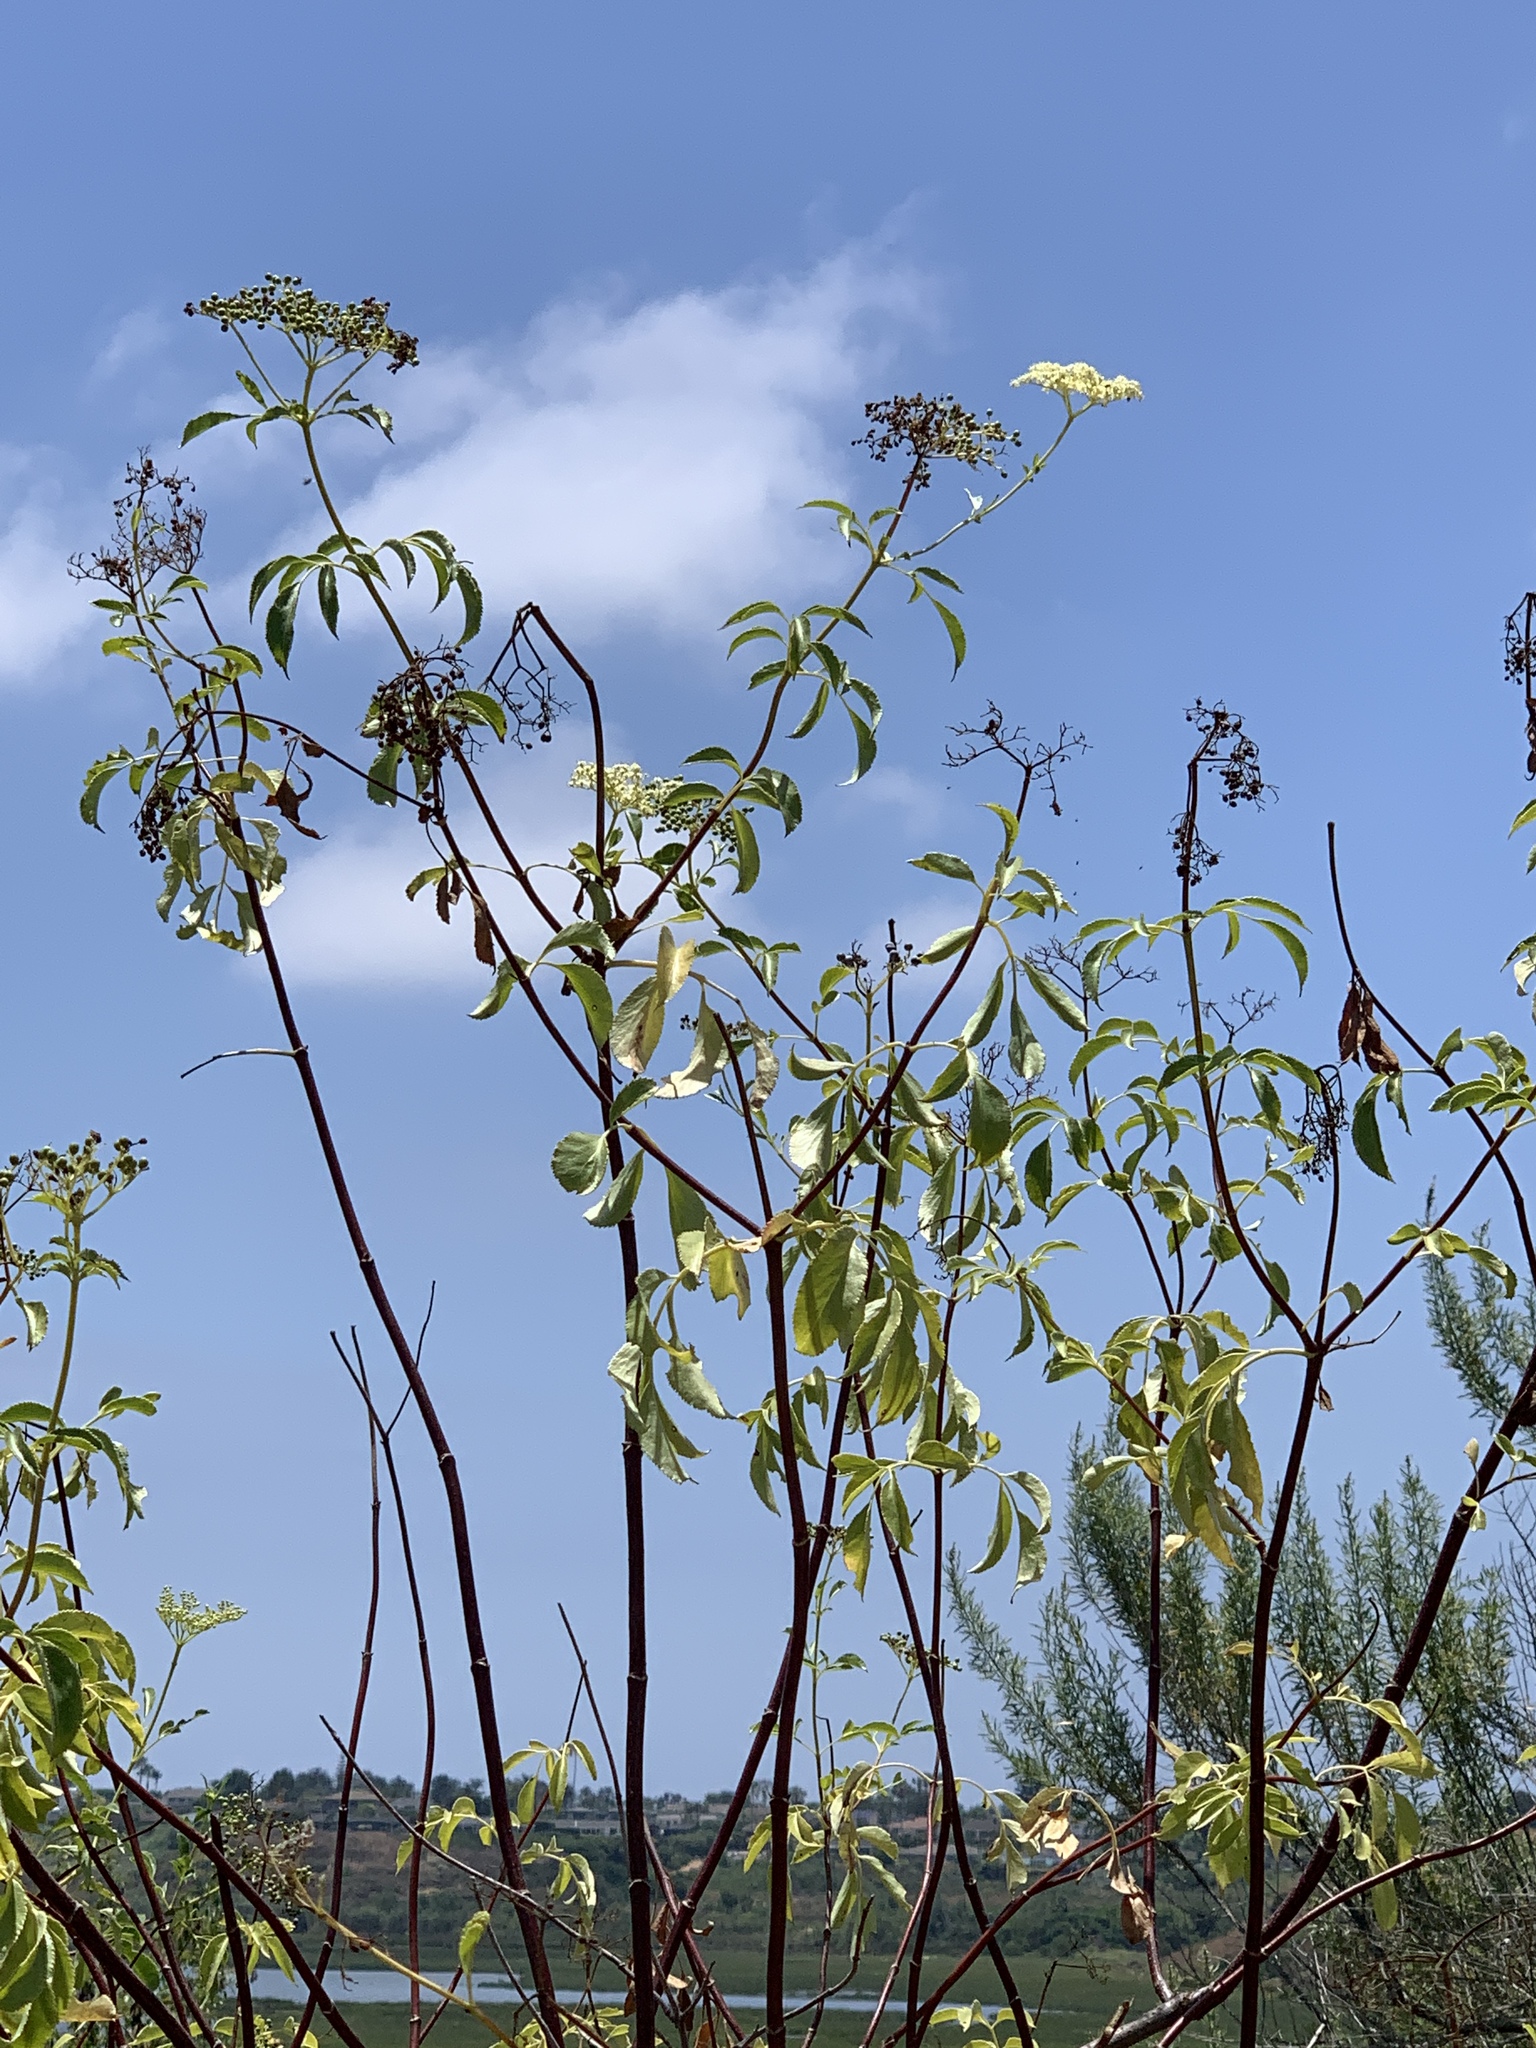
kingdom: Plantae
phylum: Tracheophyta
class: Magnoliopsida
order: Dipsacales
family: Viburnaceae
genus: Sambucus
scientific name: Sambucus cerulea
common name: Blue elder
